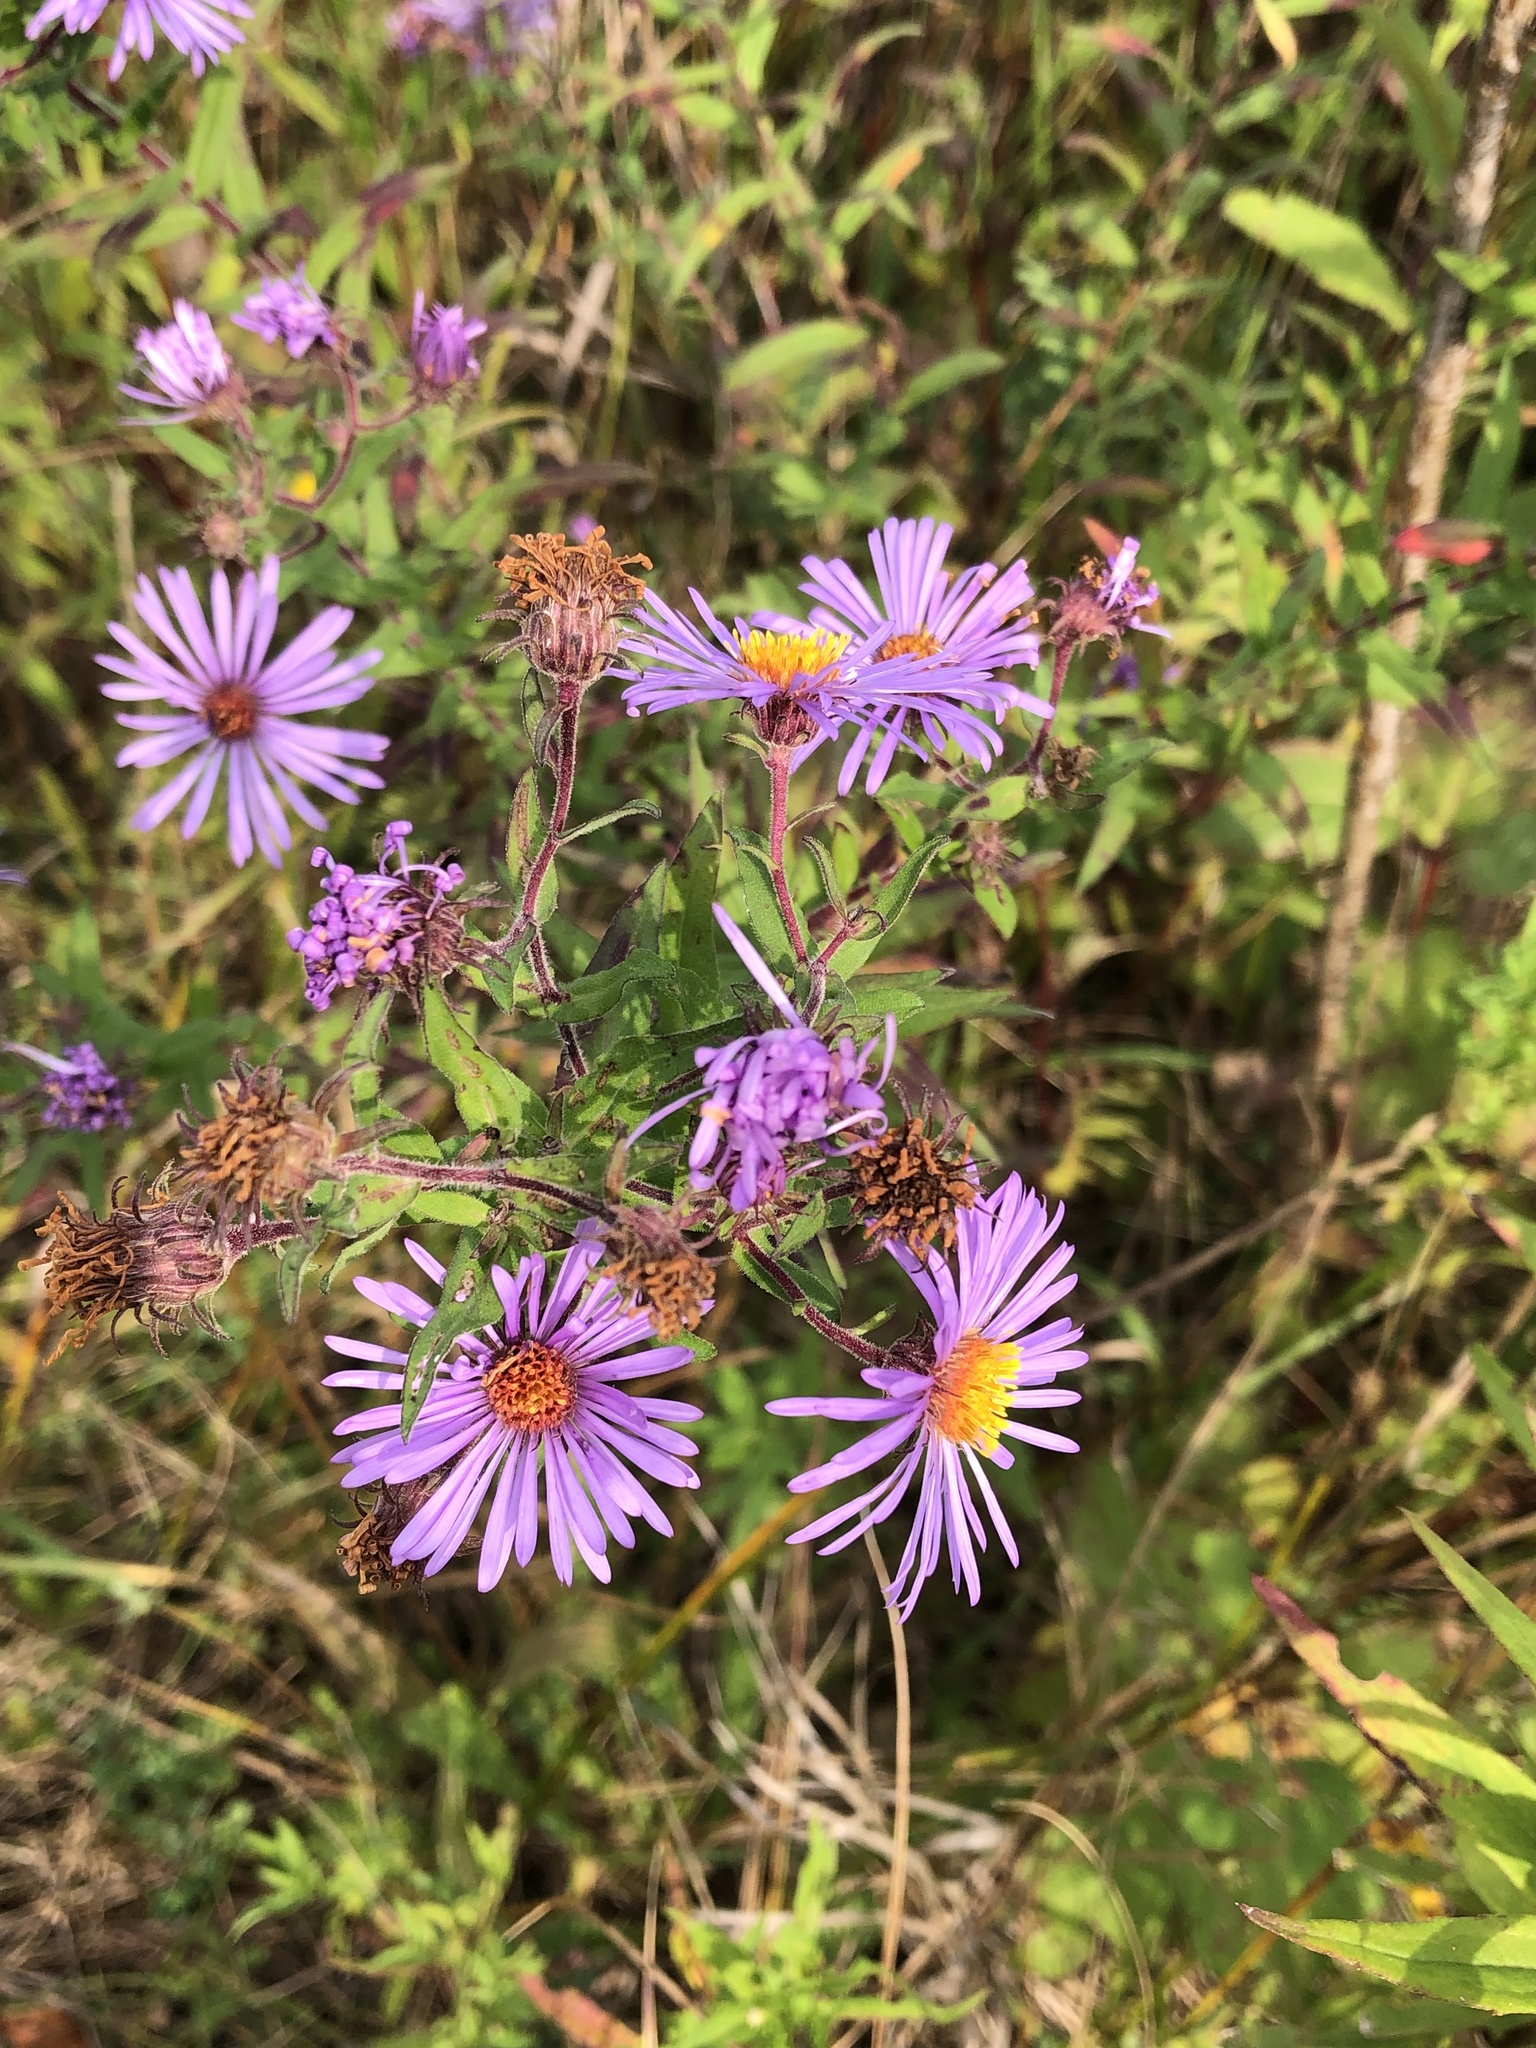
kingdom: Plantae
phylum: Tracheophyta
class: Magnoliopsida
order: Asterales
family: Asteraceae
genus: Symphyotrichum
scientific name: Symphyotrichum novae-angliae
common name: Michaelmas daisy
